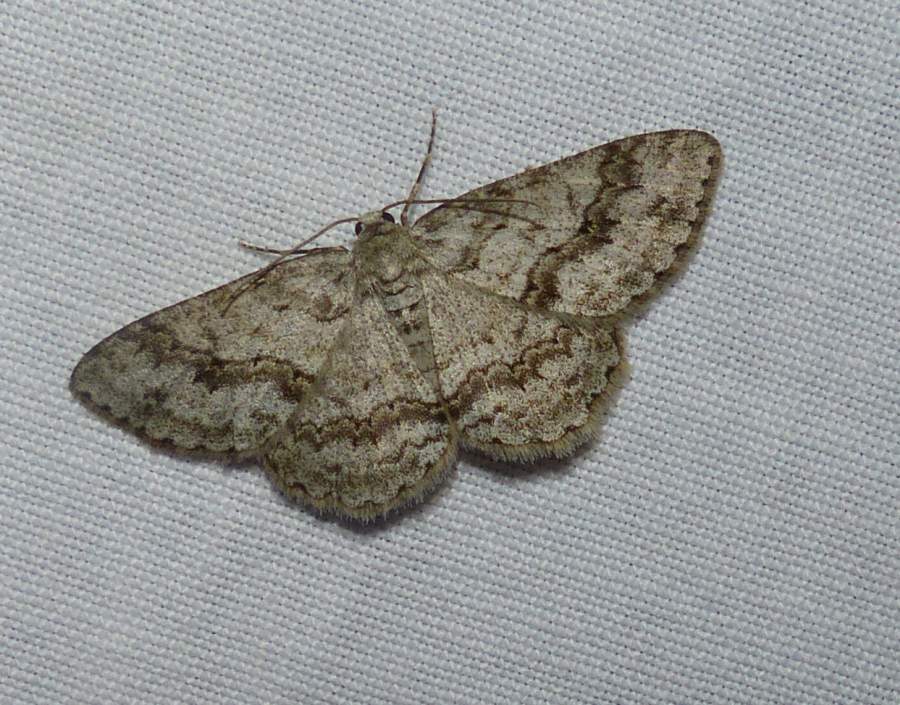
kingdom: Animalia
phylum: Arthropoda
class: Insecta
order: Lepidoptera
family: Geometridae
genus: Ectropis
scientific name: Ectropis crepuscularia
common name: Engrailed
